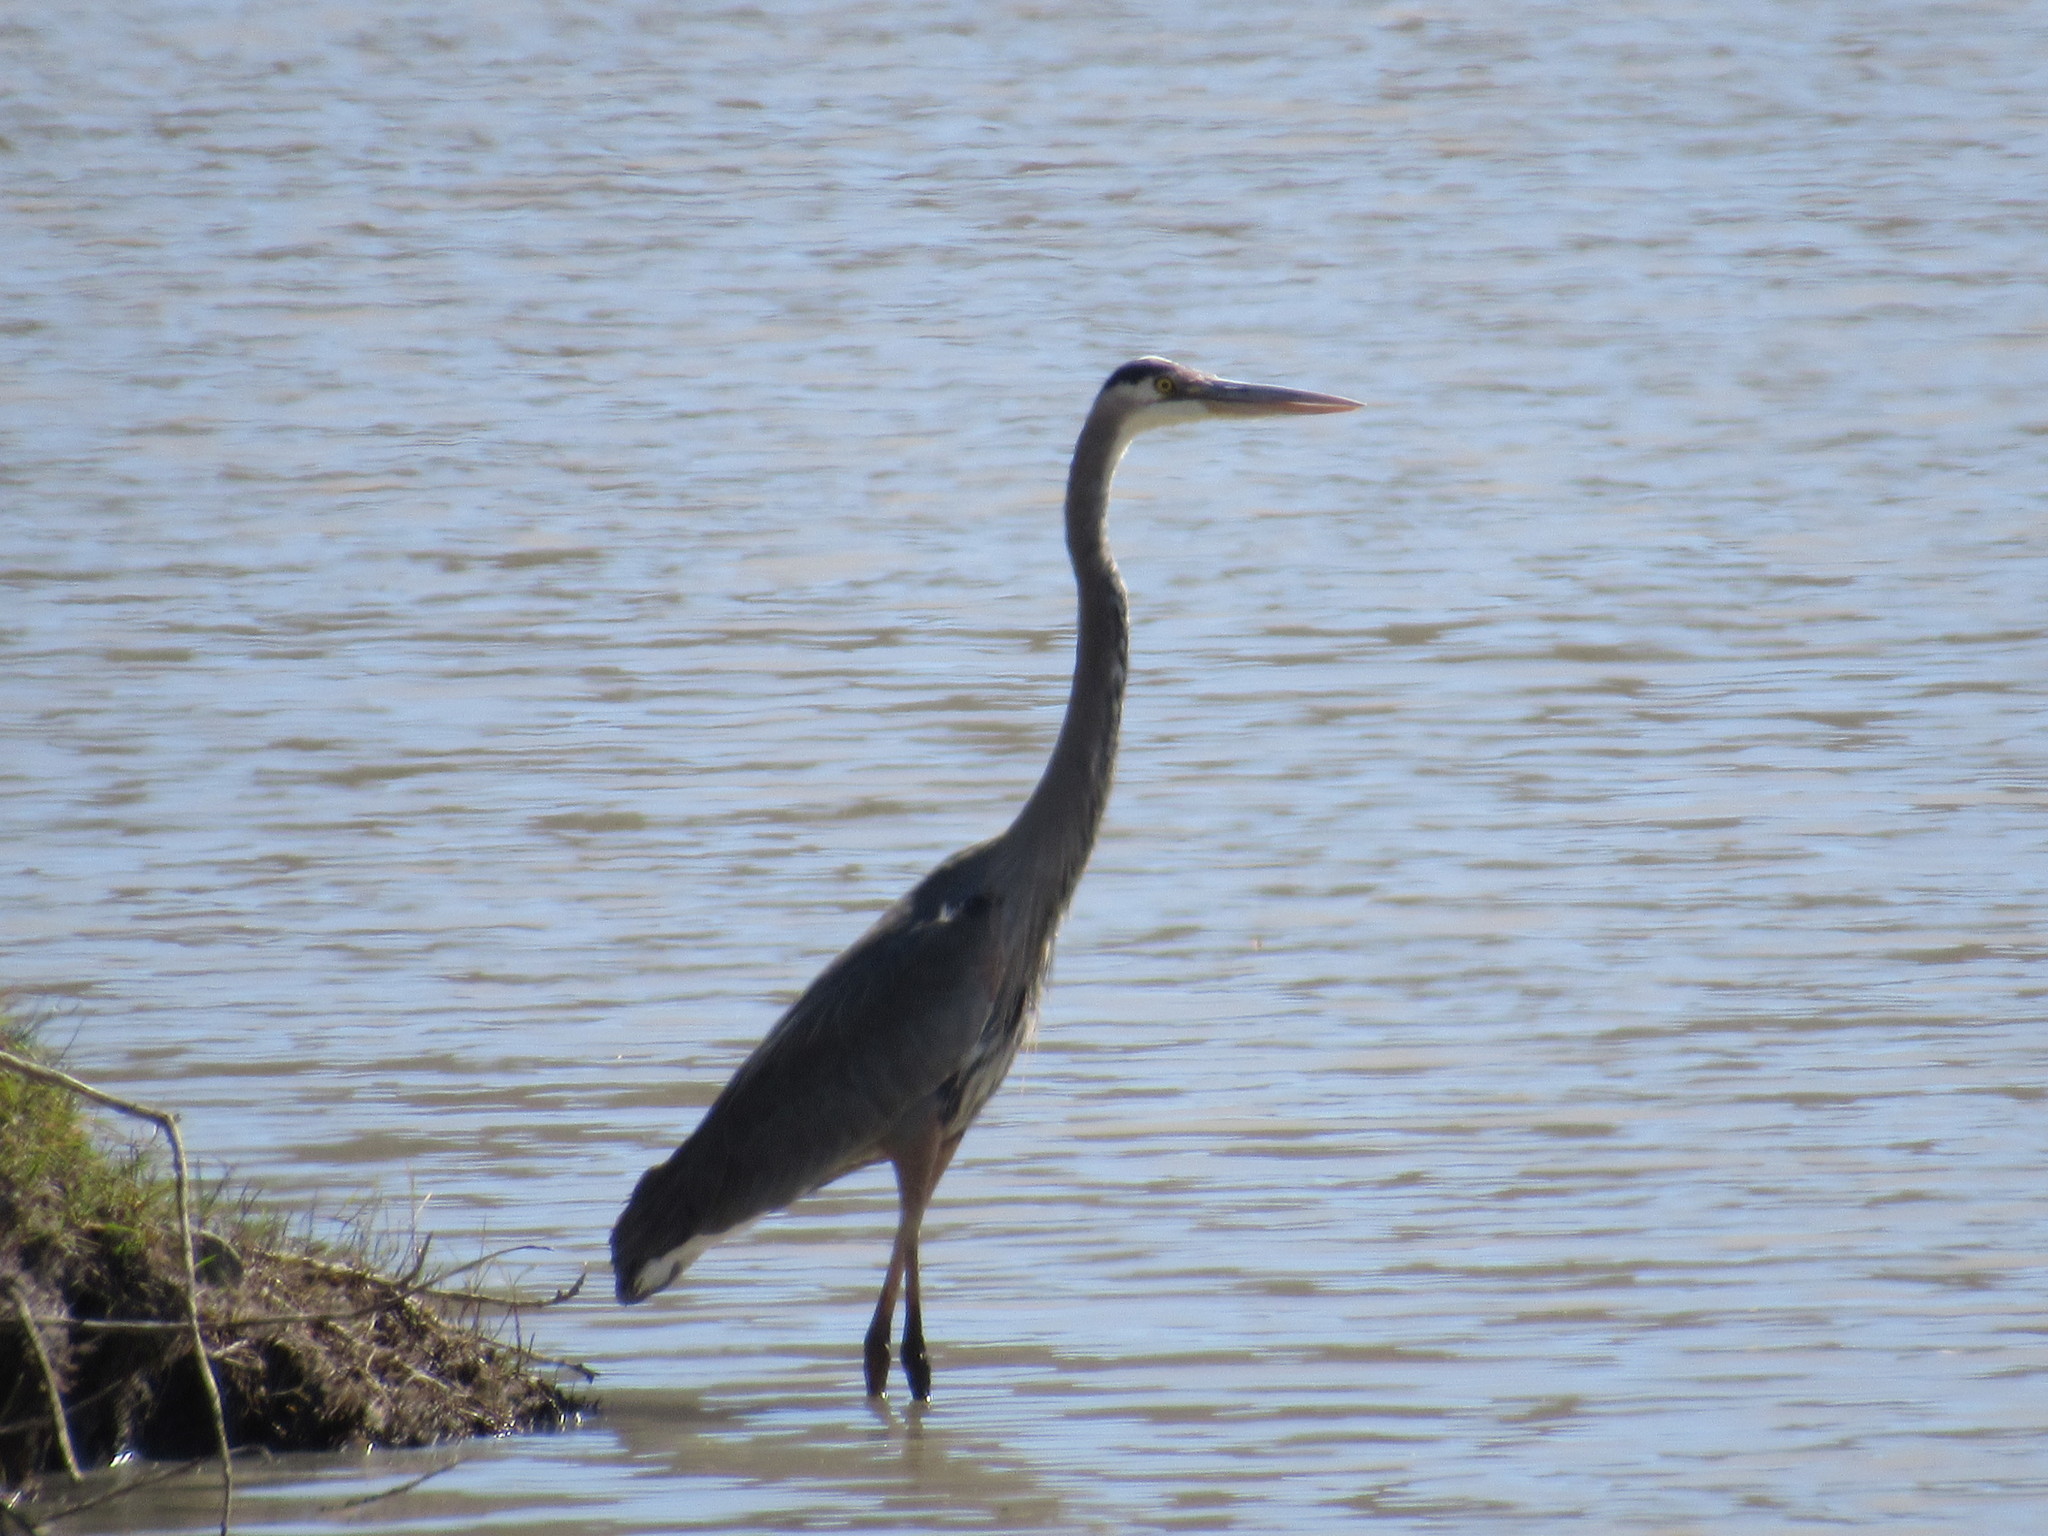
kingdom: Animalia
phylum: Chordata
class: Aves
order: Pelecaniformes
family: Ardeidae
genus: Ardea
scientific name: Ardea herodias
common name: Great blue heron
